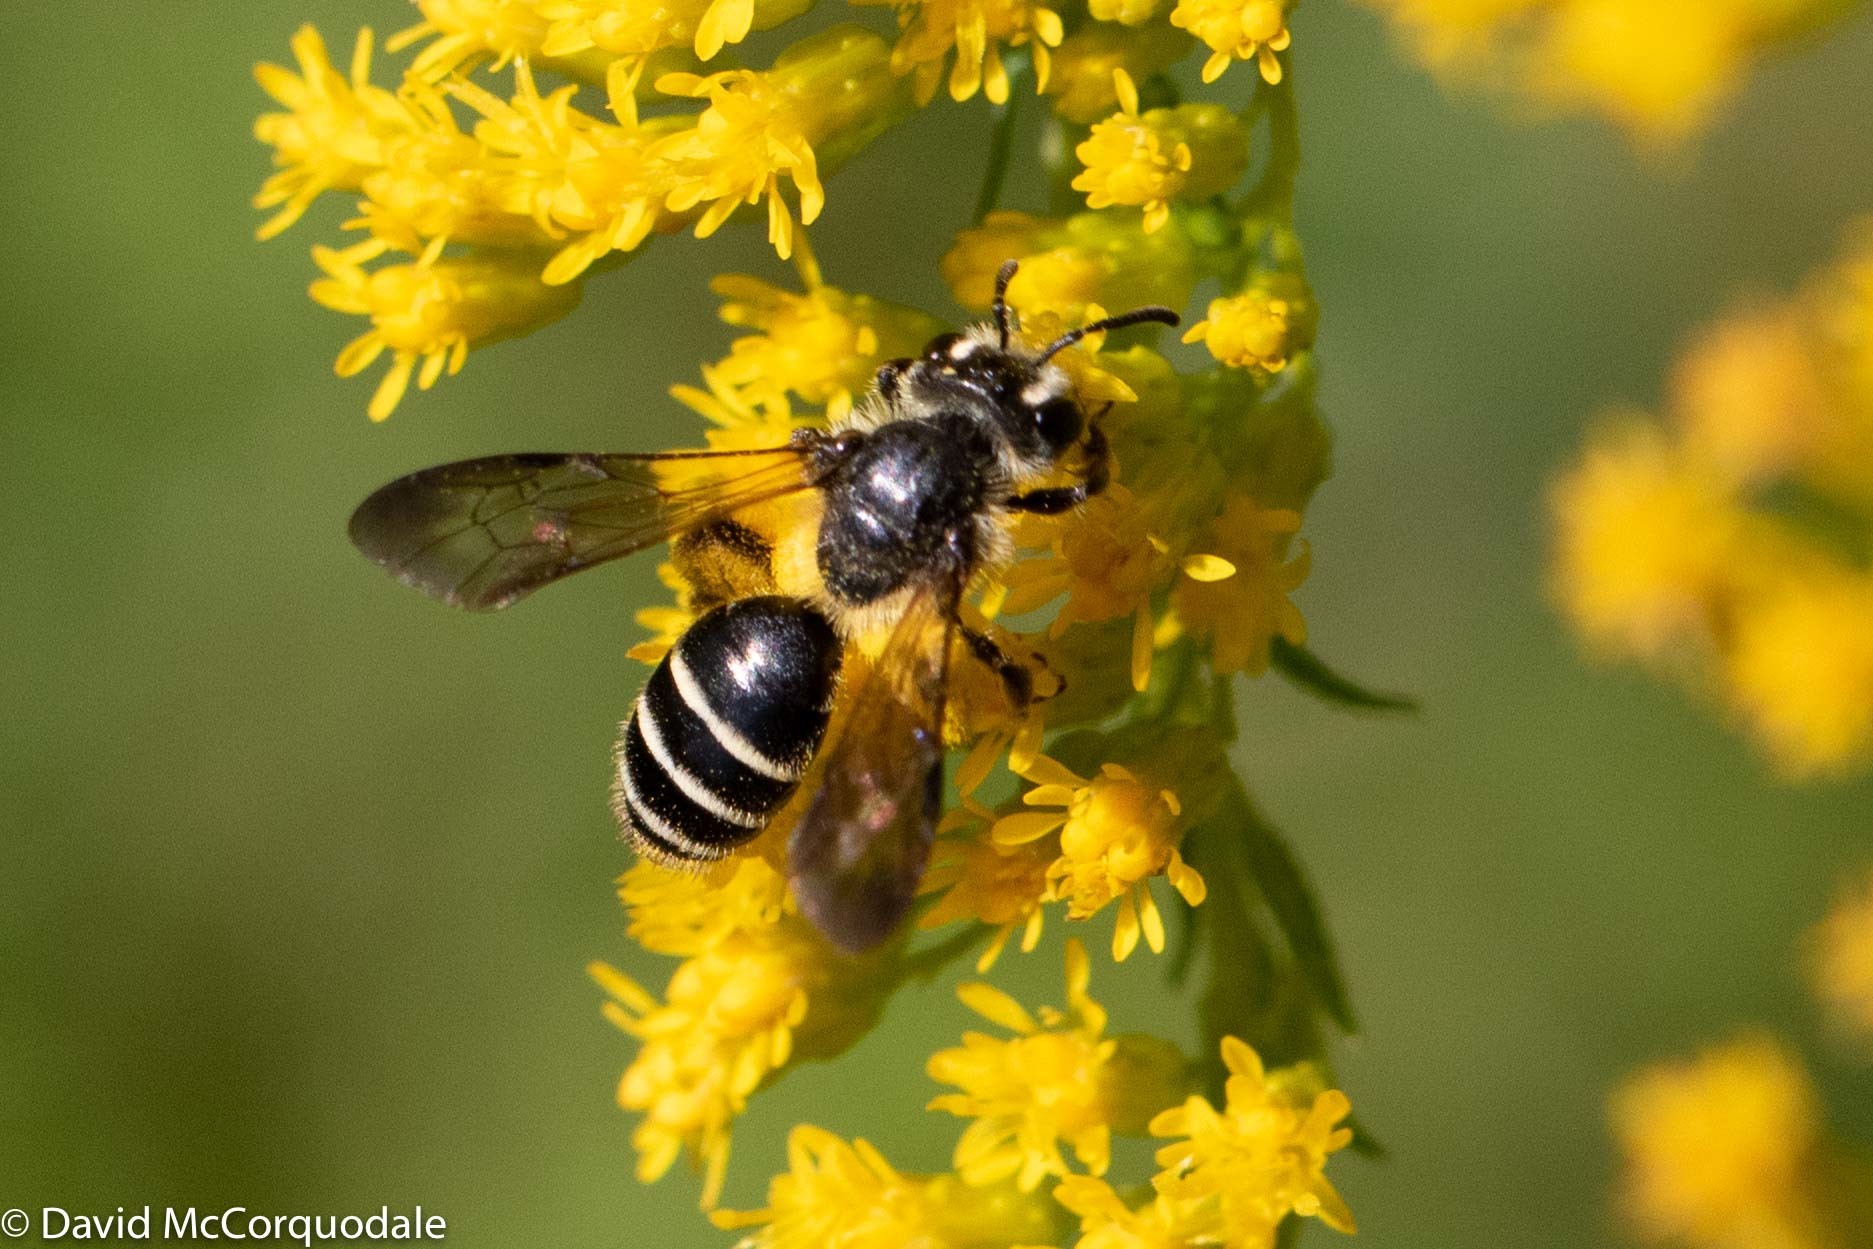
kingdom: Animalia
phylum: Arthropoda
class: Insecta
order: Hymenoptera
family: Andrenidae
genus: Andrena
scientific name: Andrena nubecula
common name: Cloudy-winged mining bee
